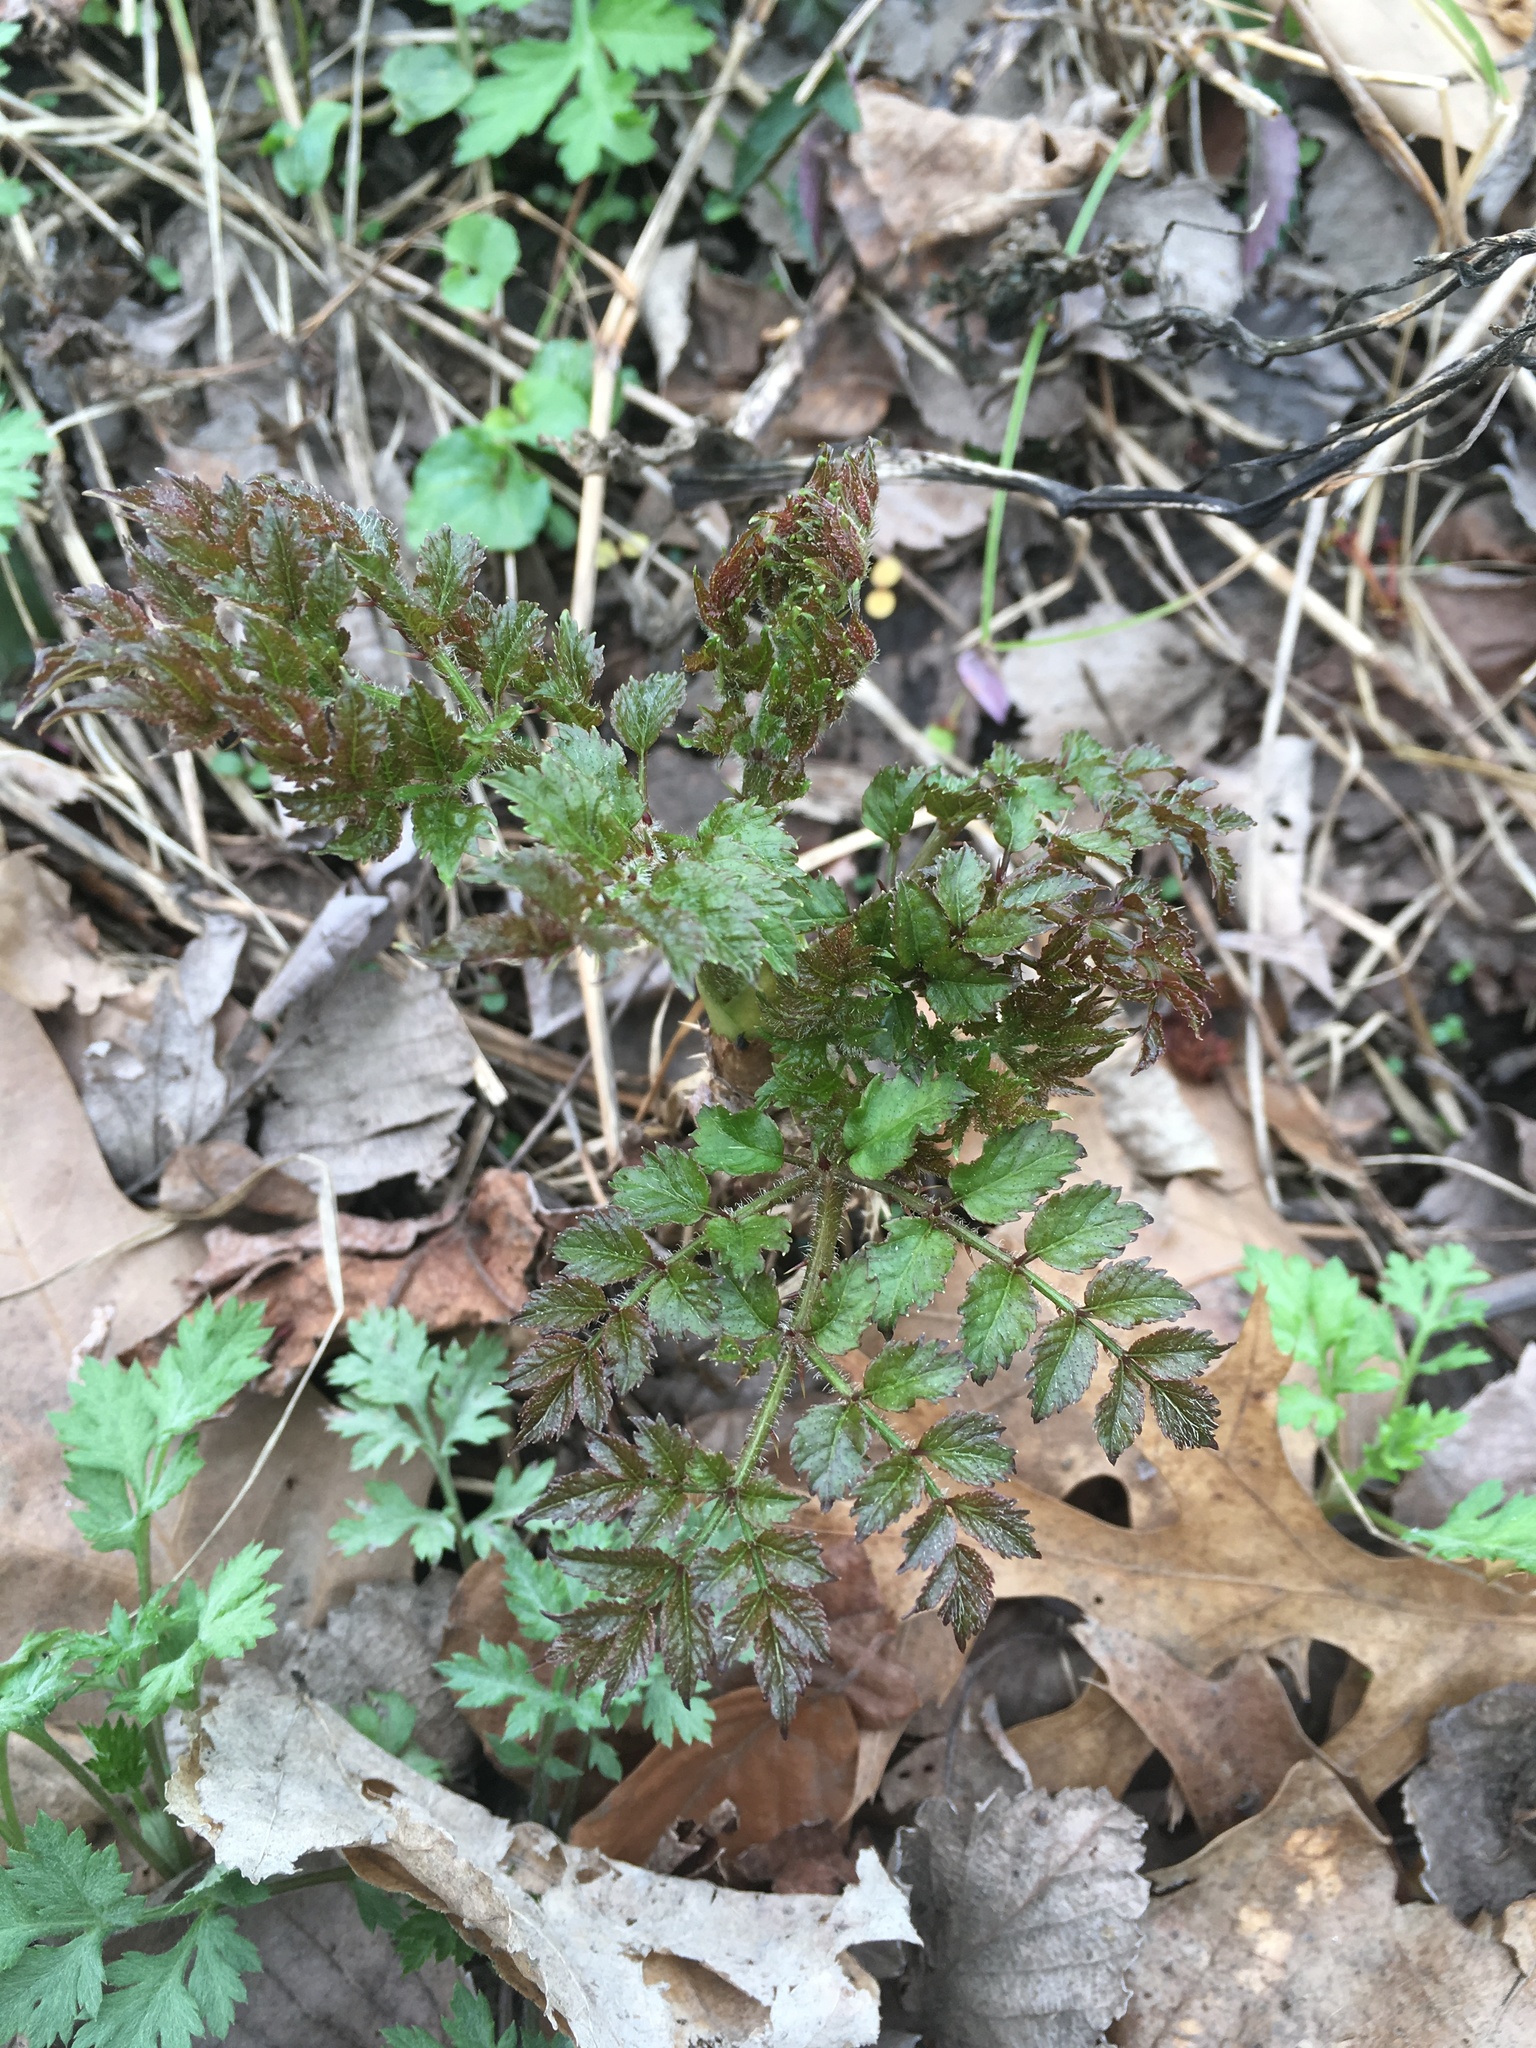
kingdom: Plantae
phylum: Tracheophyta
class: Magnoliopsida
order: Apiales
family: Araliaceae
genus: Aralia
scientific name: Aralia elata
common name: Japanese angelica-tree
